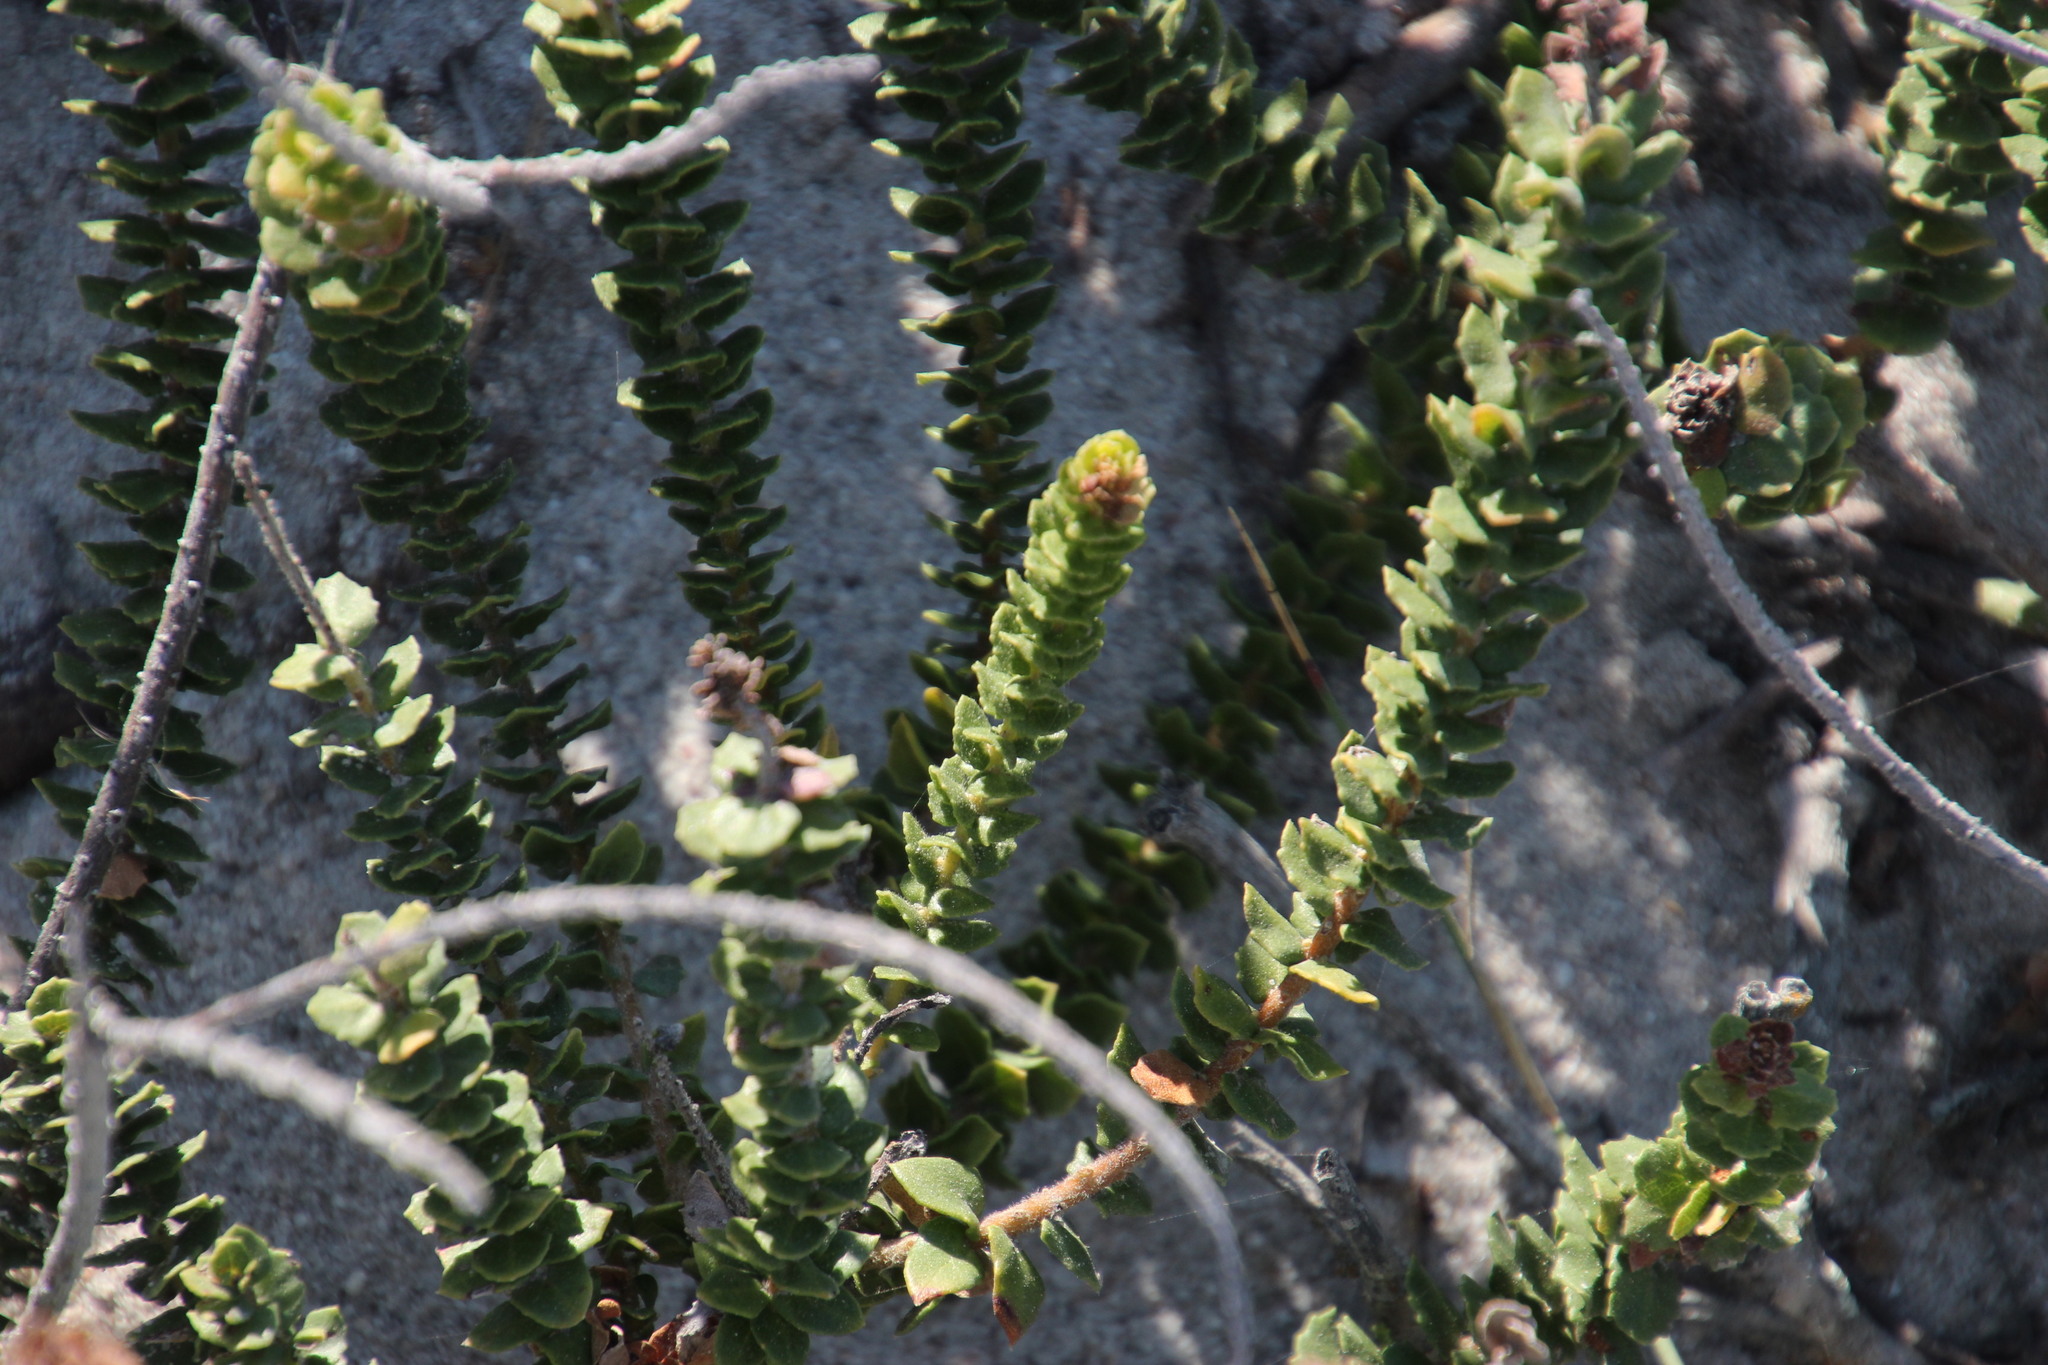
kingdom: Plantae
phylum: Tracheophyta
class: Magnoliopsida
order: Fagales
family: Myricaceae
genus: Morella
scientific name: Morella cordifolia
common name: Waxberry
